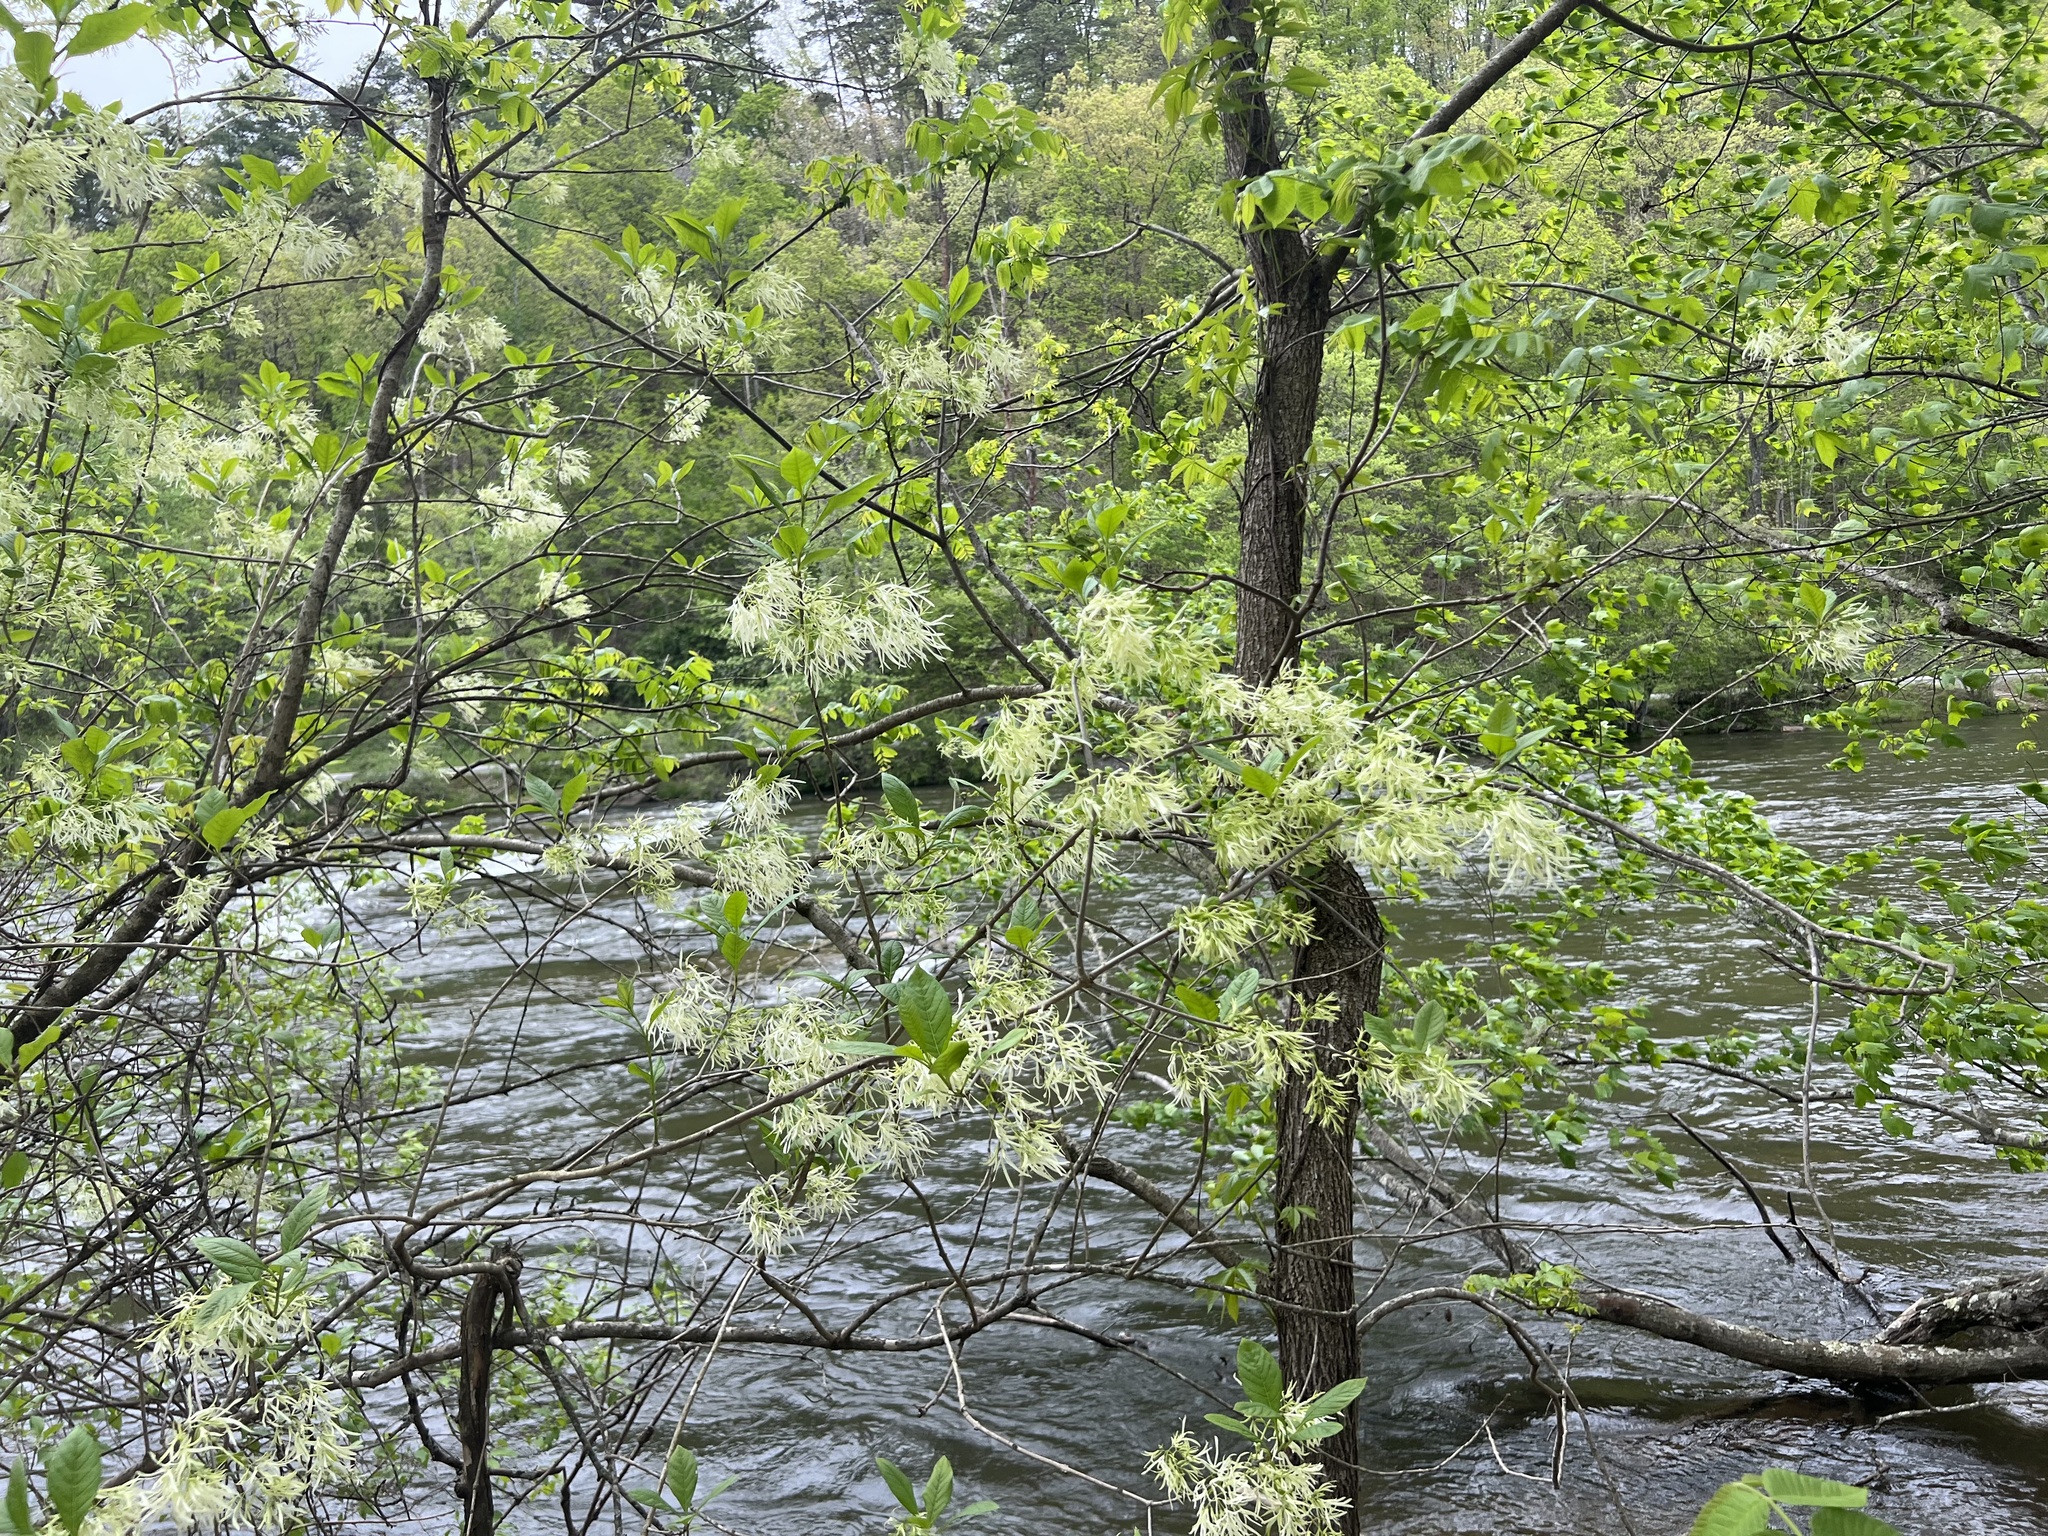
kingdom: Plantae
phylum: Tracheophyta
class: Magnoliopsida
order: Lamiales
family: Oleaceae
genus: Chionanthus
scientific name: Chionanthus virginicus
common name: American fringetree
